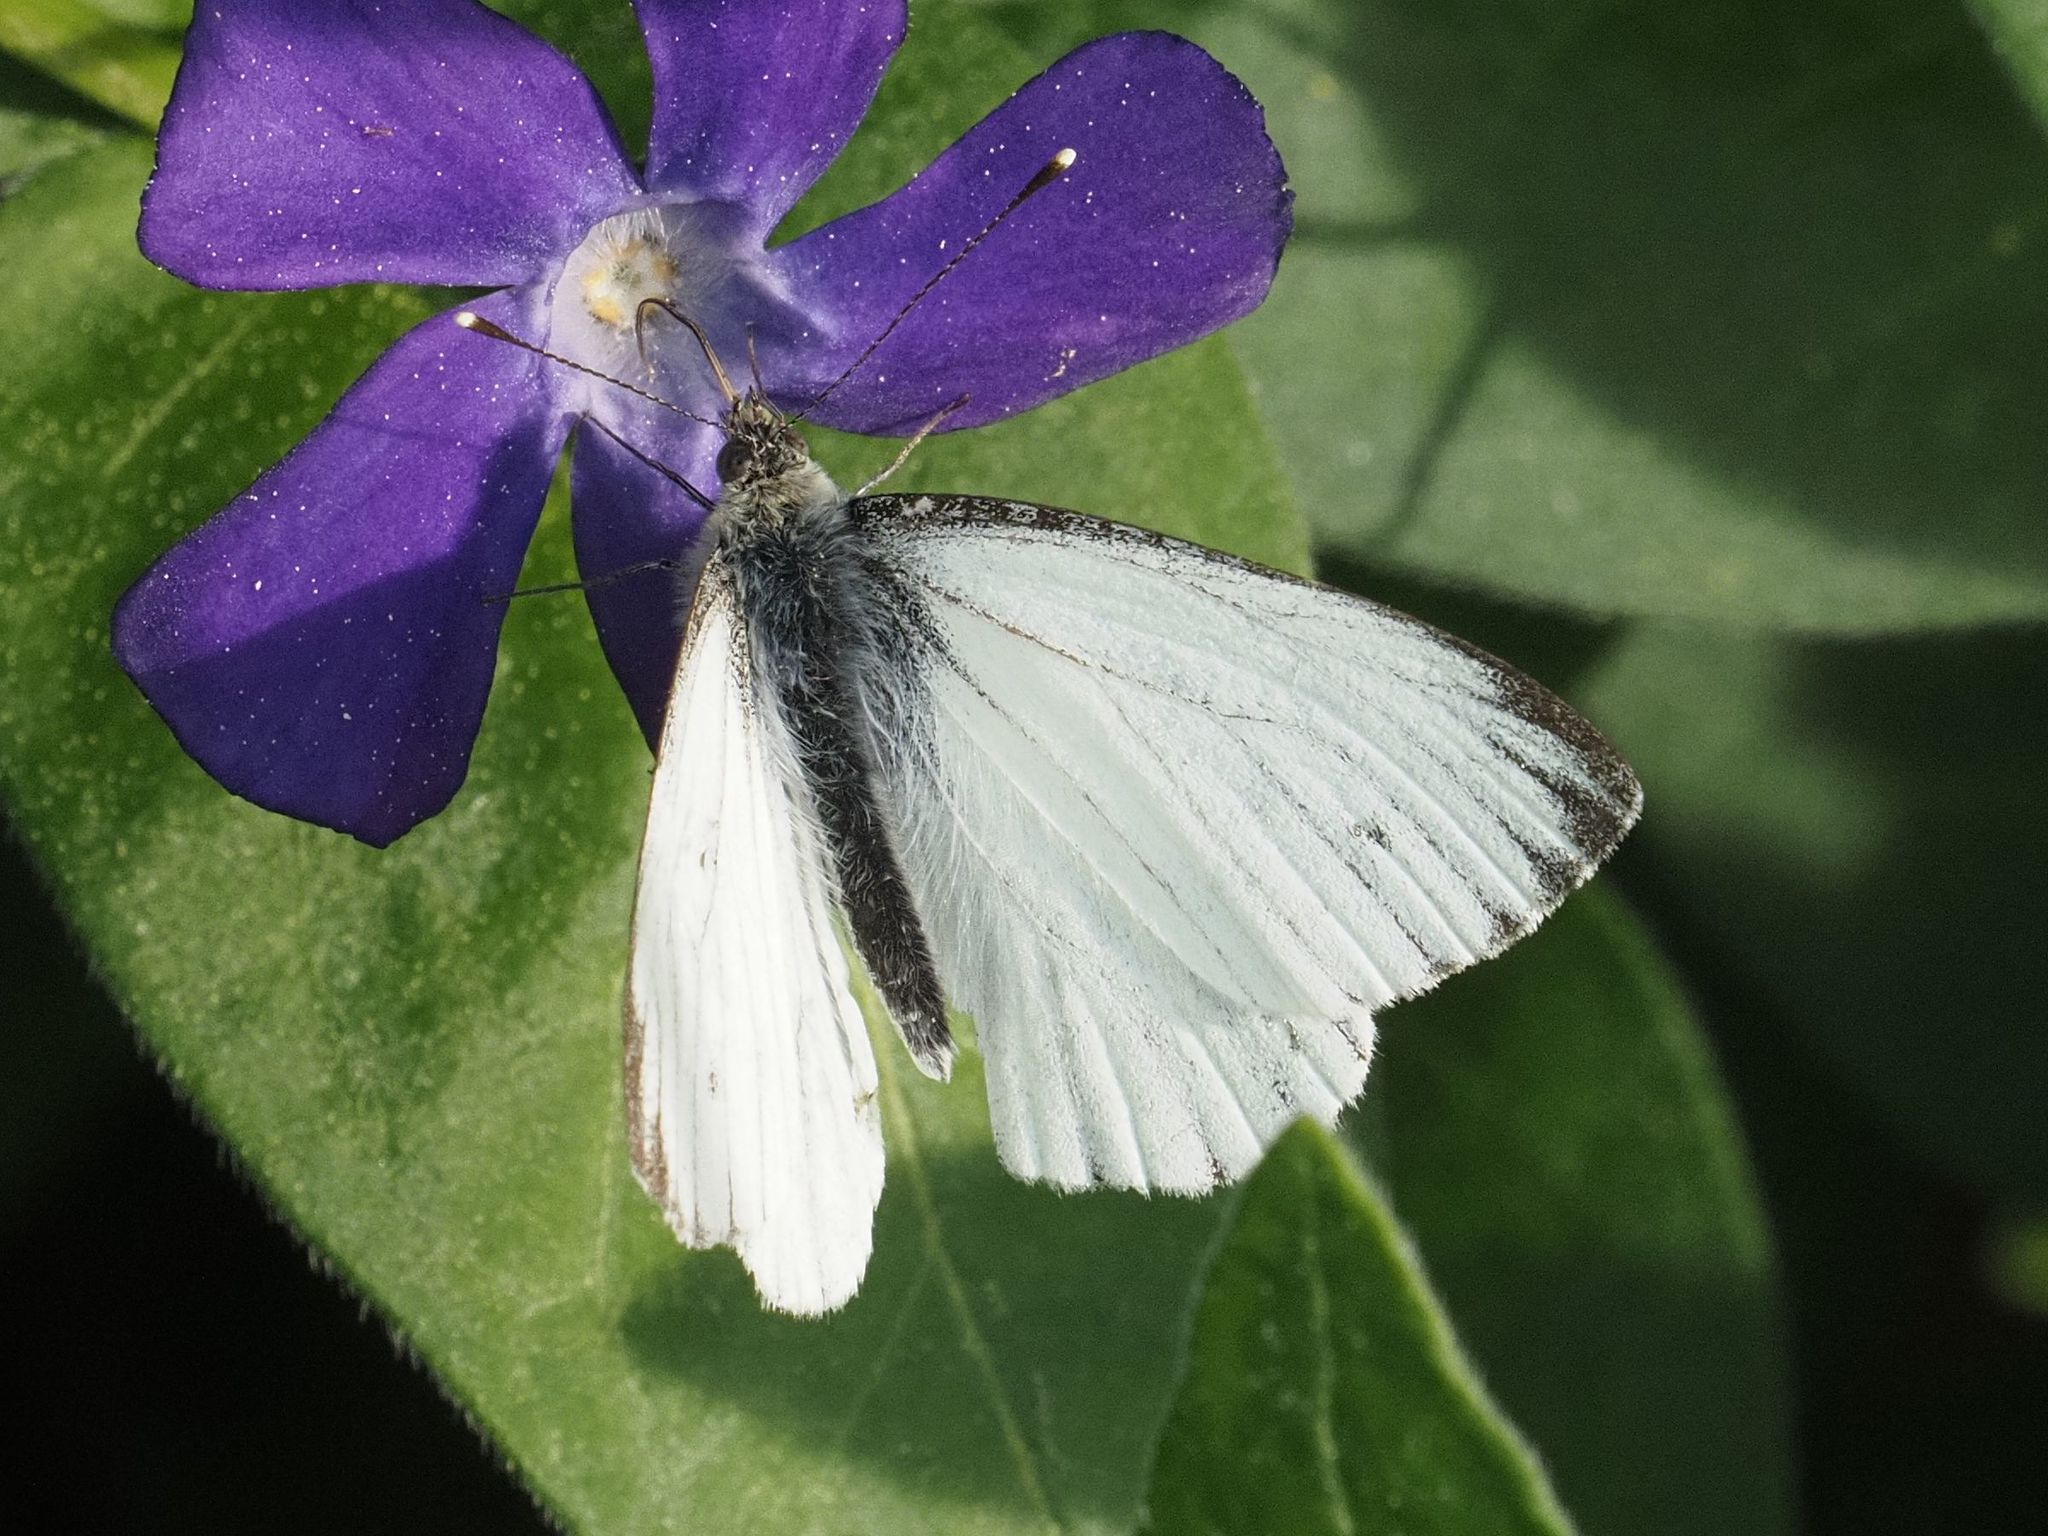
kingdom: Animalia
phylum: Arthropoda
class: Insecta
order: Lepidoptera
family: Pieridae
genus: Pieris
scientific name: Pieris napi
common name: Green-veined white
